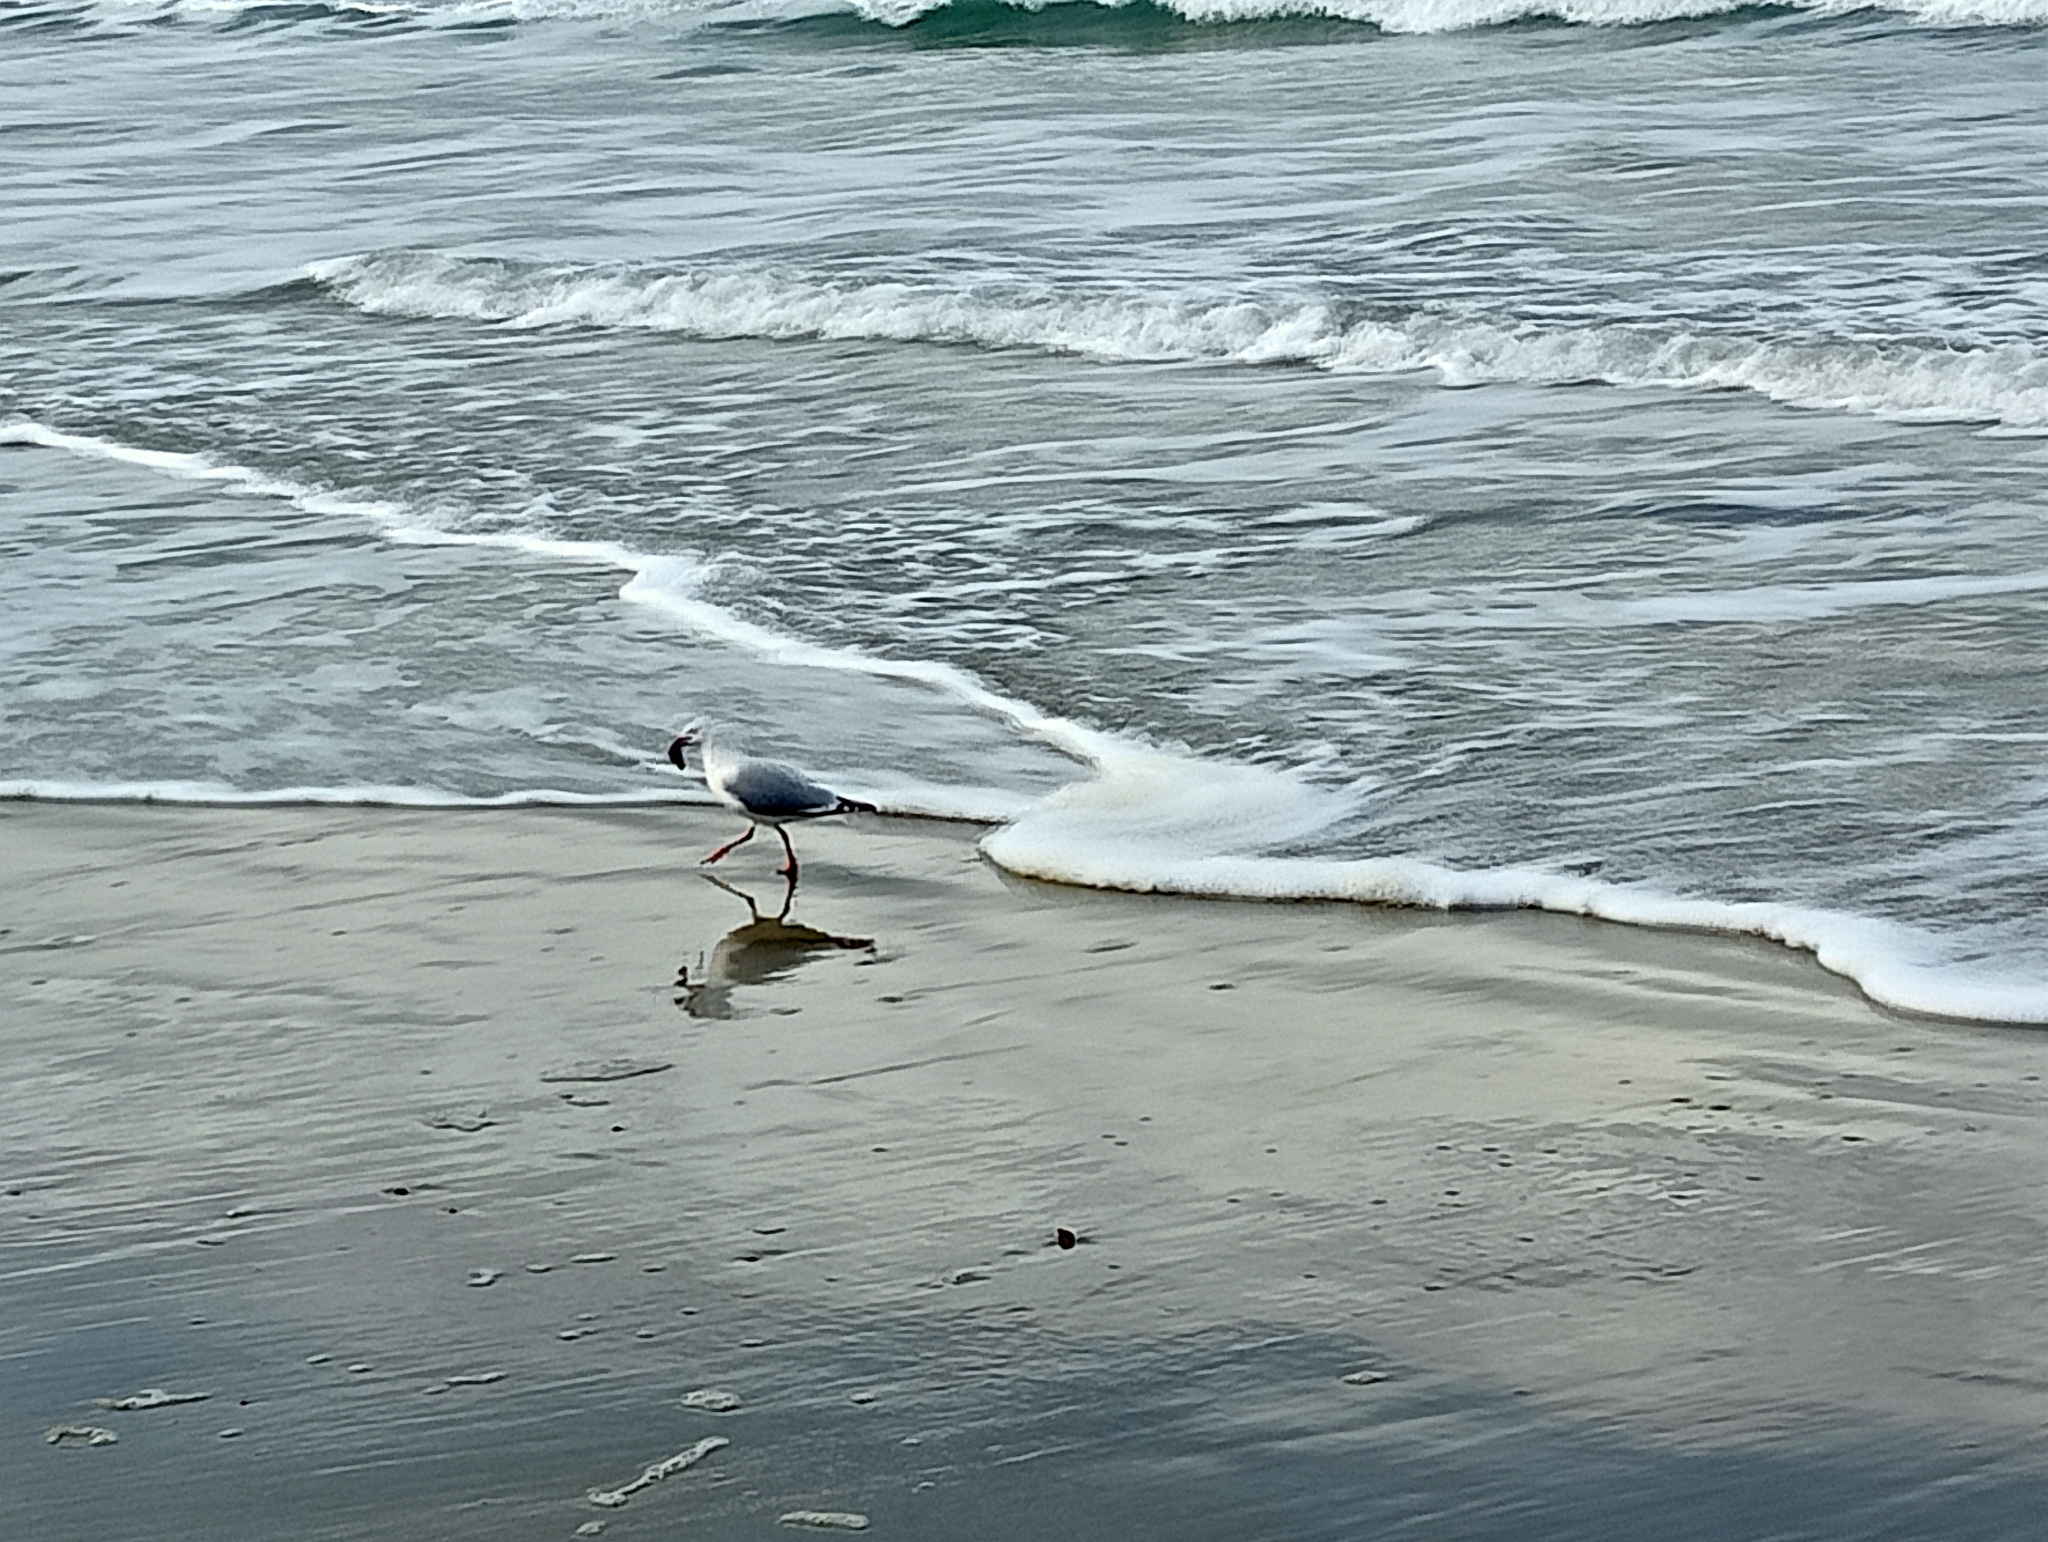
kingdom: Animalia
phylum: Chordata
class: Aves
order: Charadriiformes
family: Laridae
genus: Chroicocephalus
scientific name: Chroicocephalus novaehollandiae
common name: Silver gull
